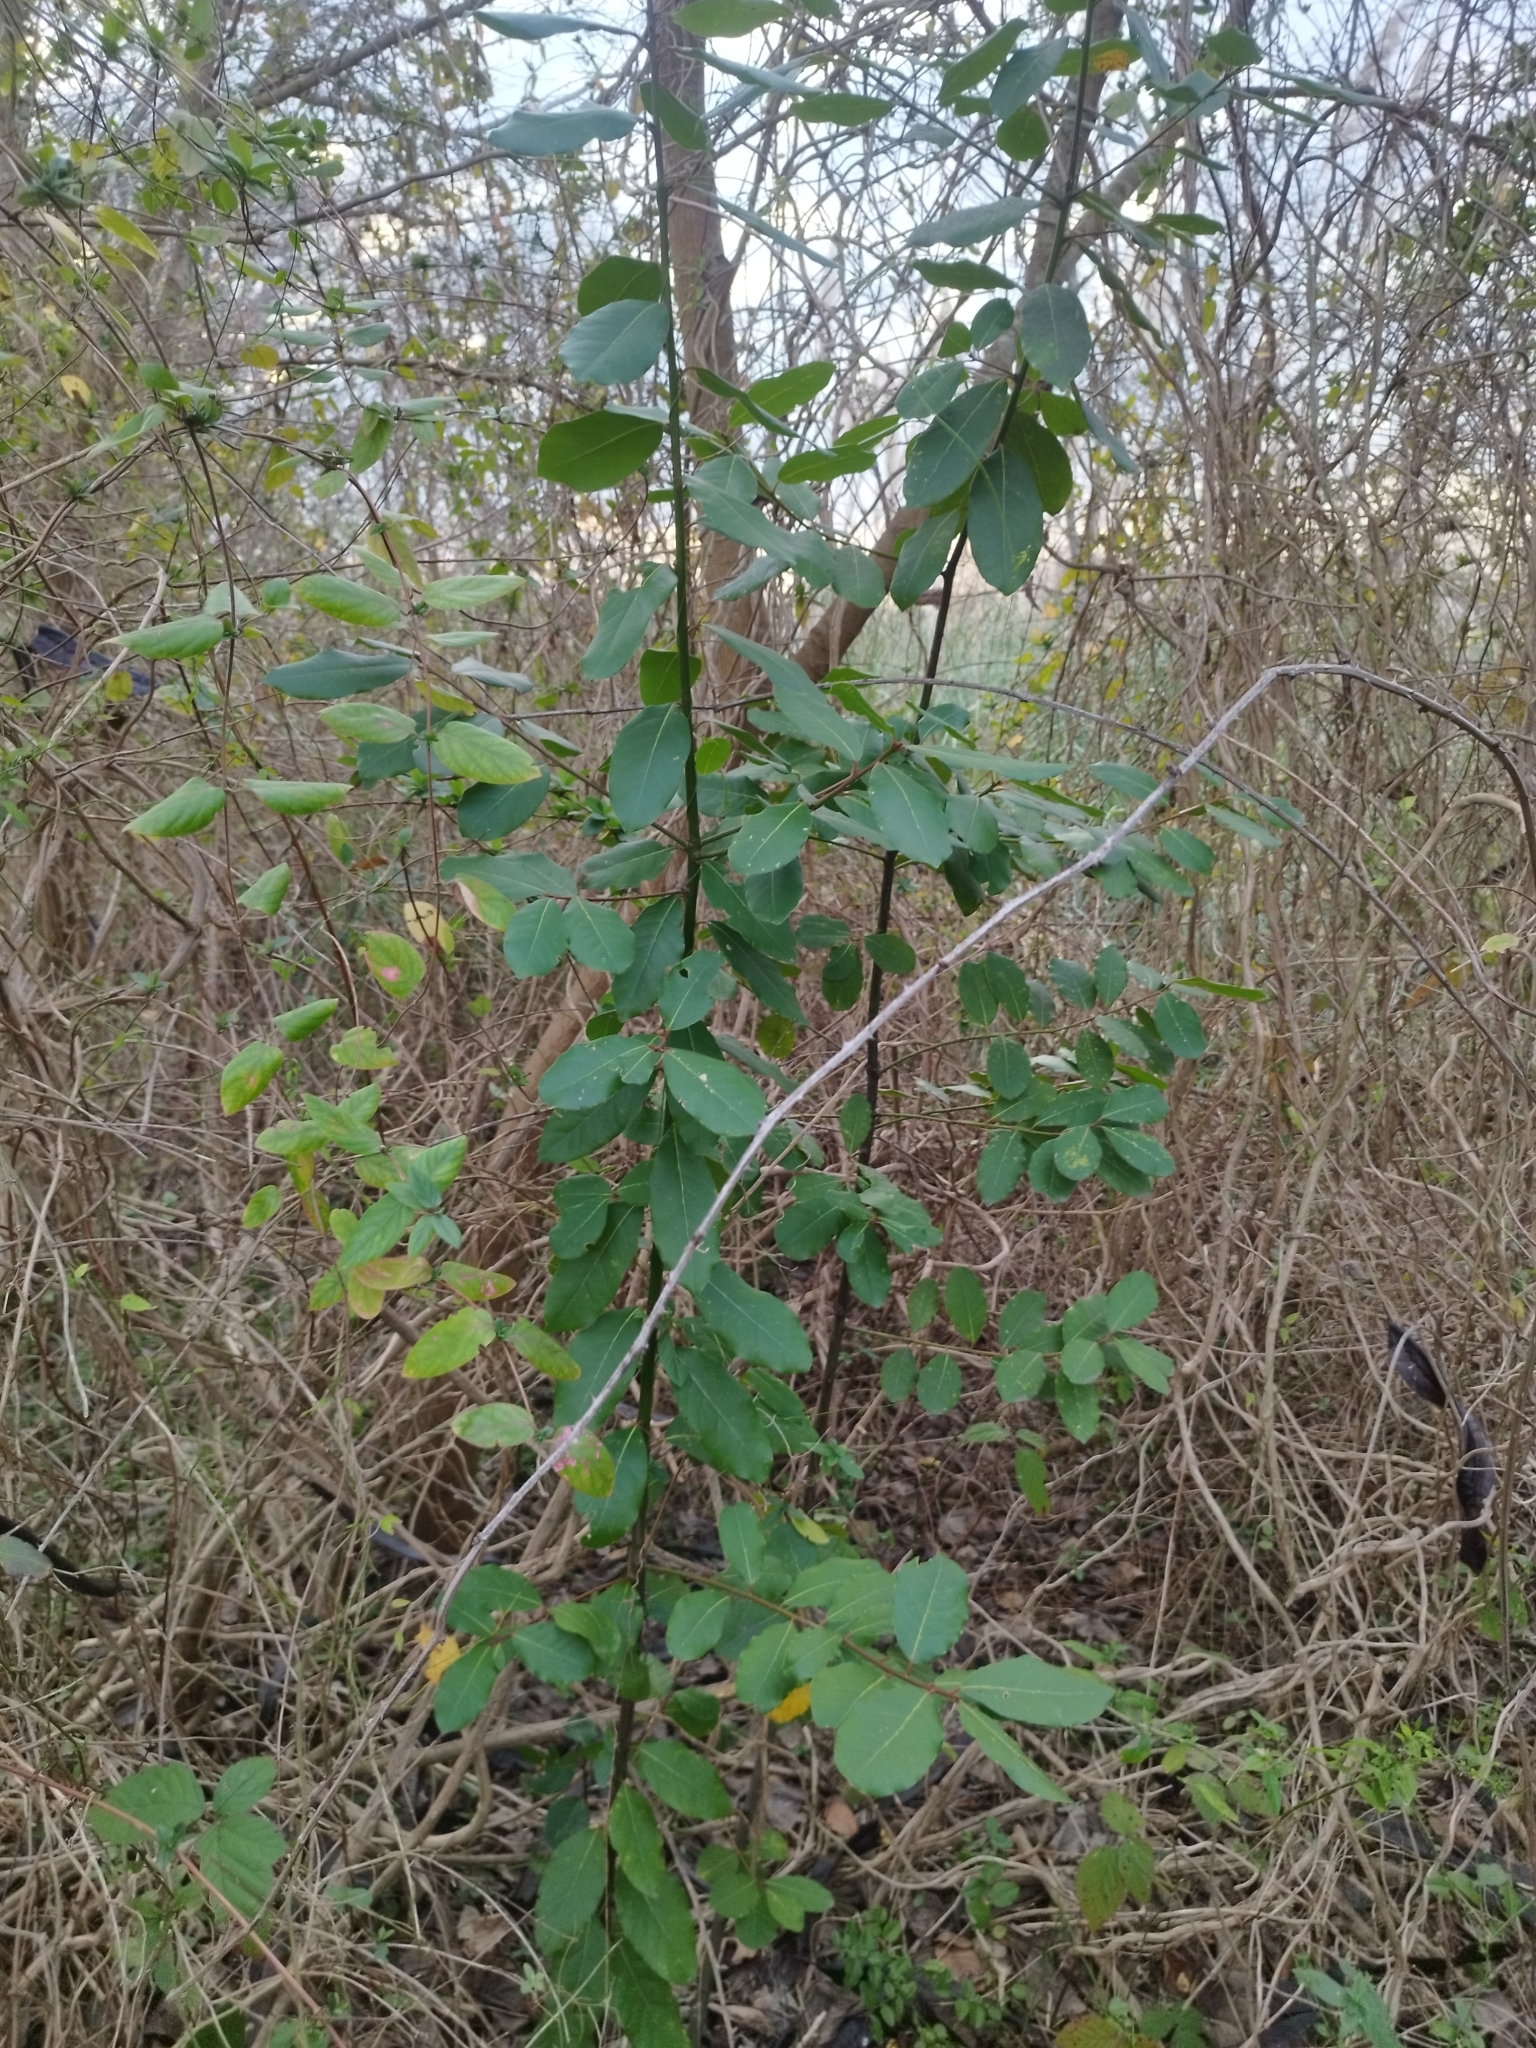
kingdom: Plantae
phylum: Tracheophyta
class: Magnoliopsida
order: Laurales
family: Lauraceae
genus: Laurus
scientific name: Laurus nobilis
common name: Bay
